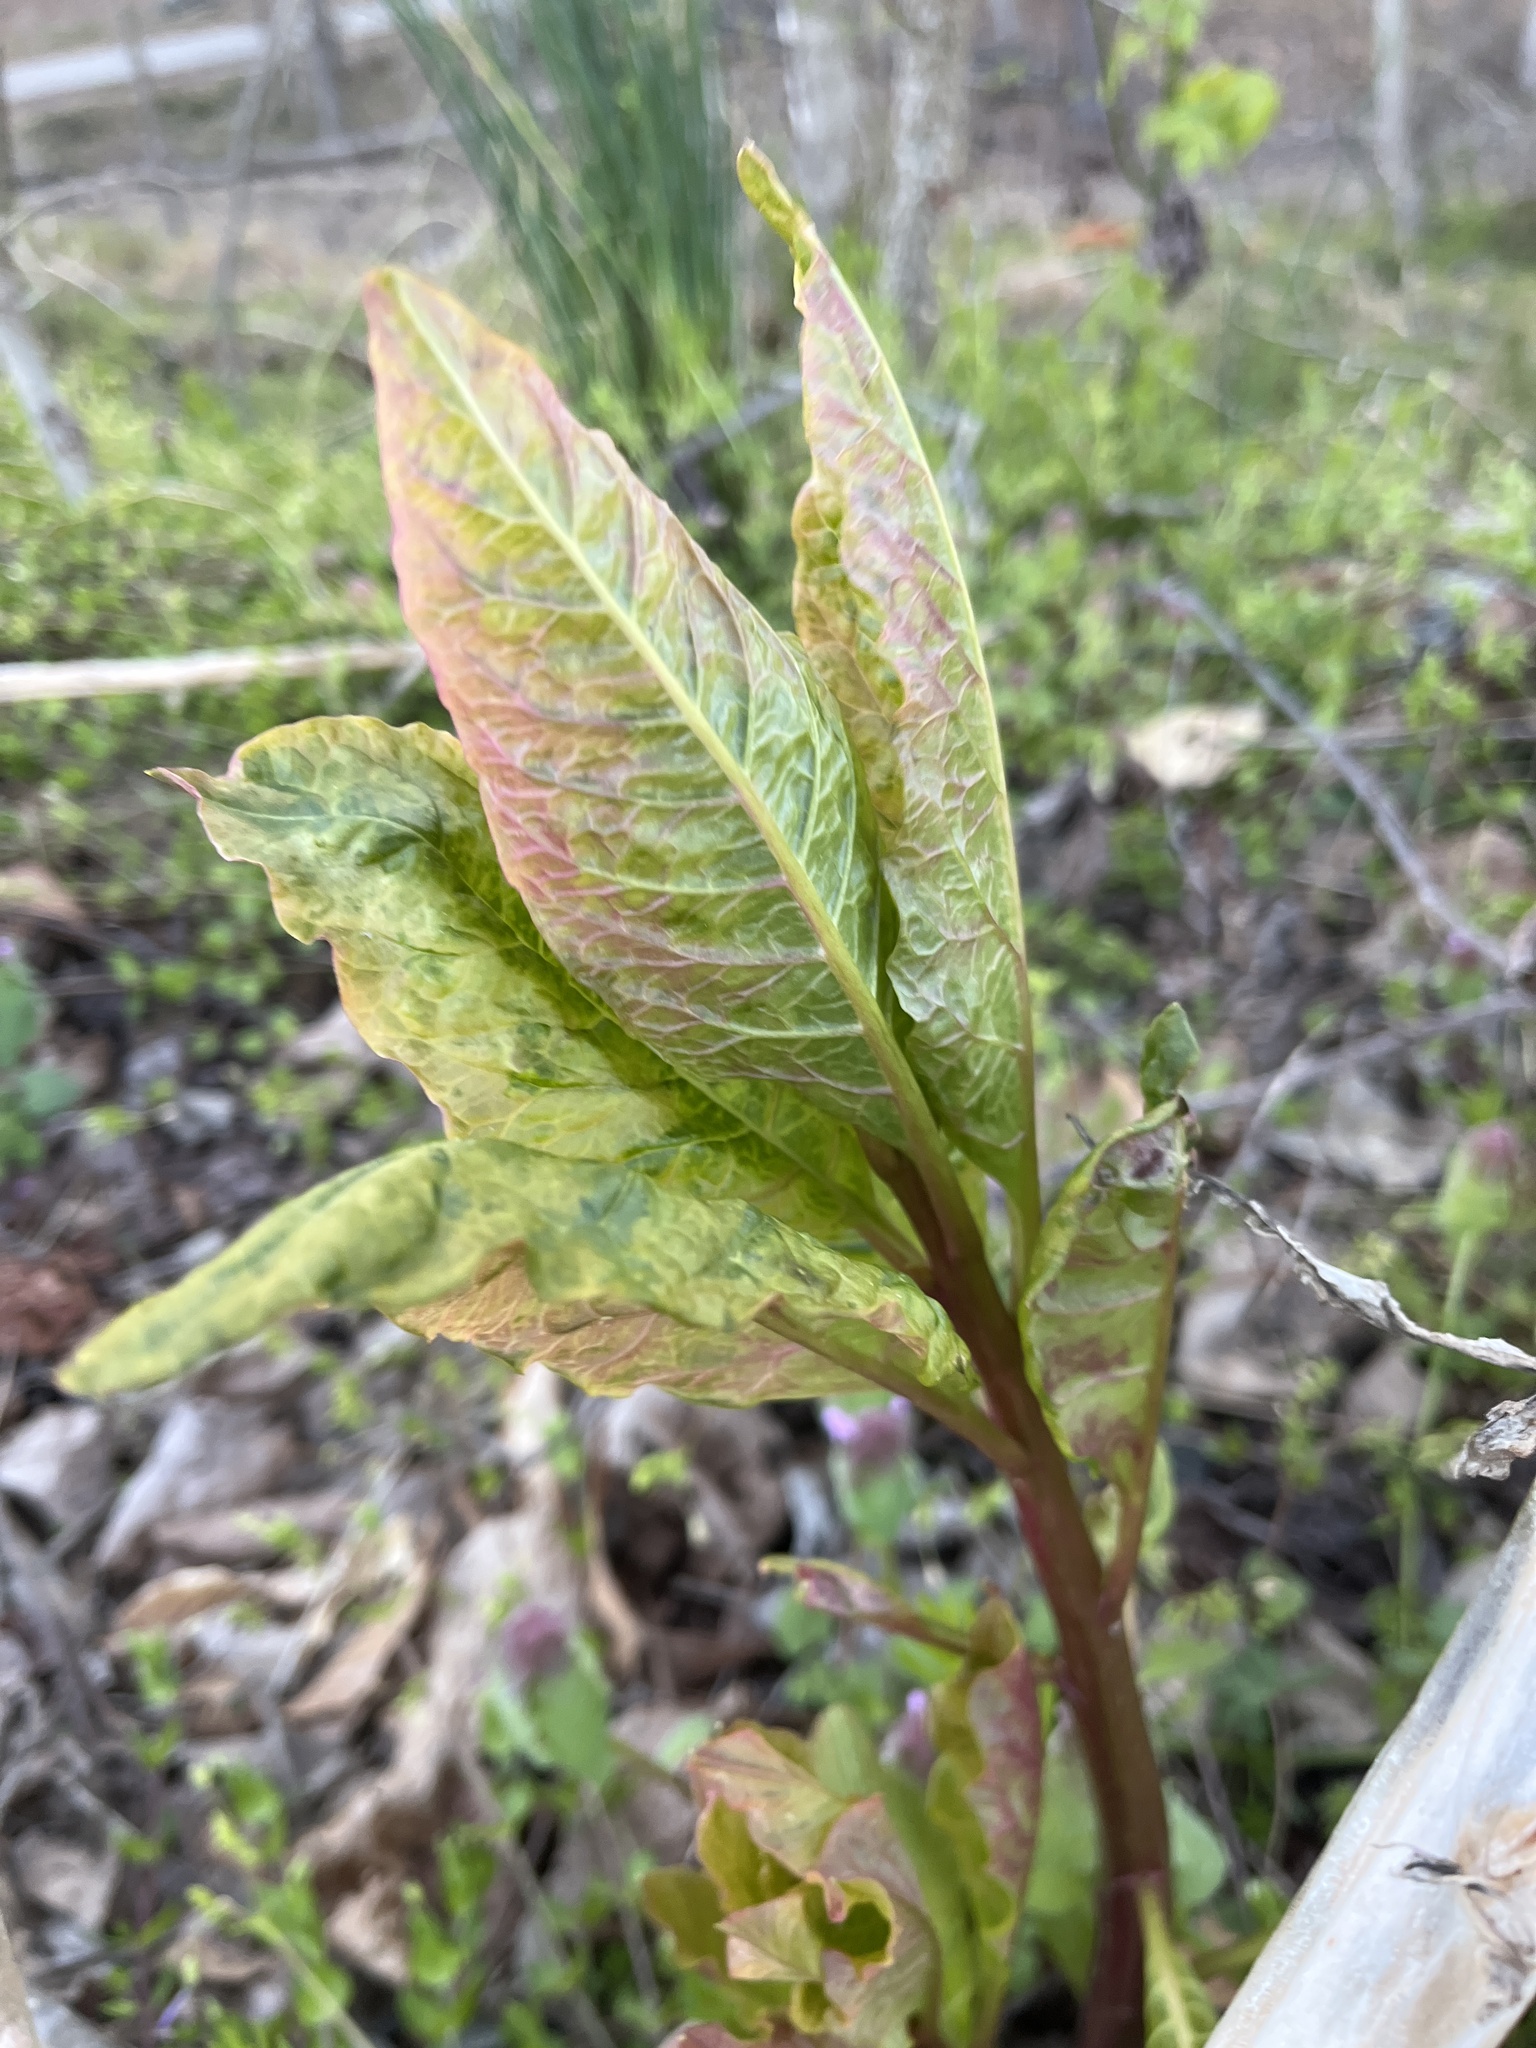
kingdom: Plantae
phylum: Tracheophyta
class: Magnoliopsida
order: Caryophyllales
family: Phytolaccaceae
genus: Phytolacca
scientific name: Phytolacca americana
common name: American pokeweed
